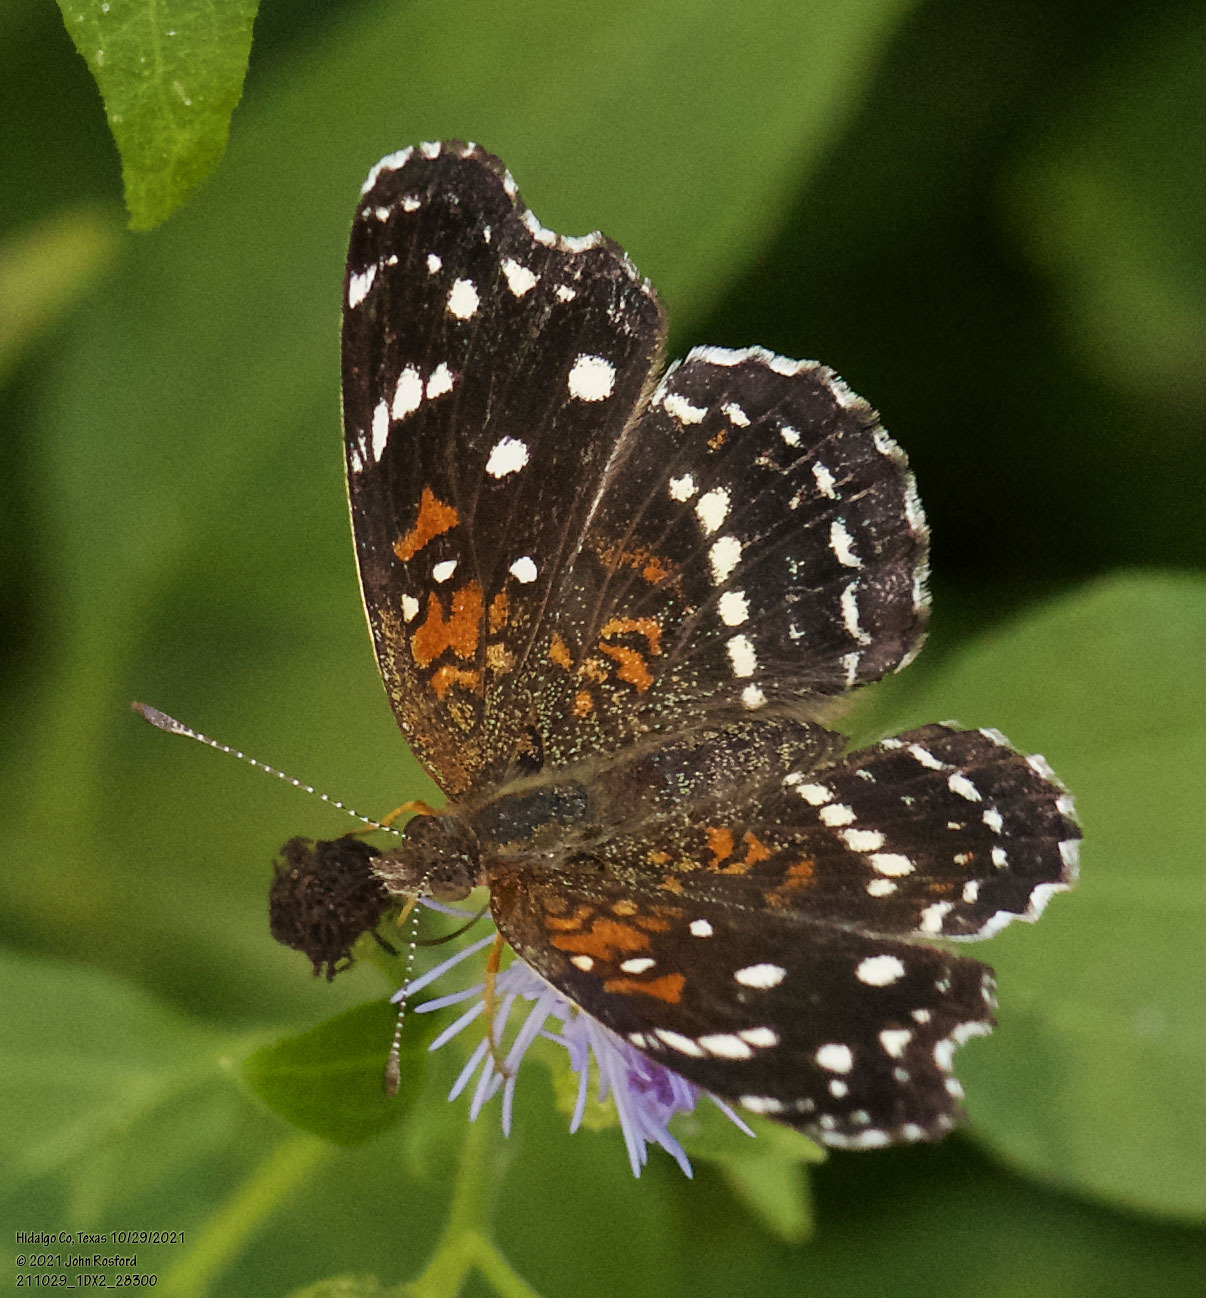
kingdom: Animalia
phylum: Arthropoda
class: Insecta
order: Lepidoptera
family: Nymphalidae
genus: Anthanassa
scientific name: Anthanassa texana
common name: Texan crescent
